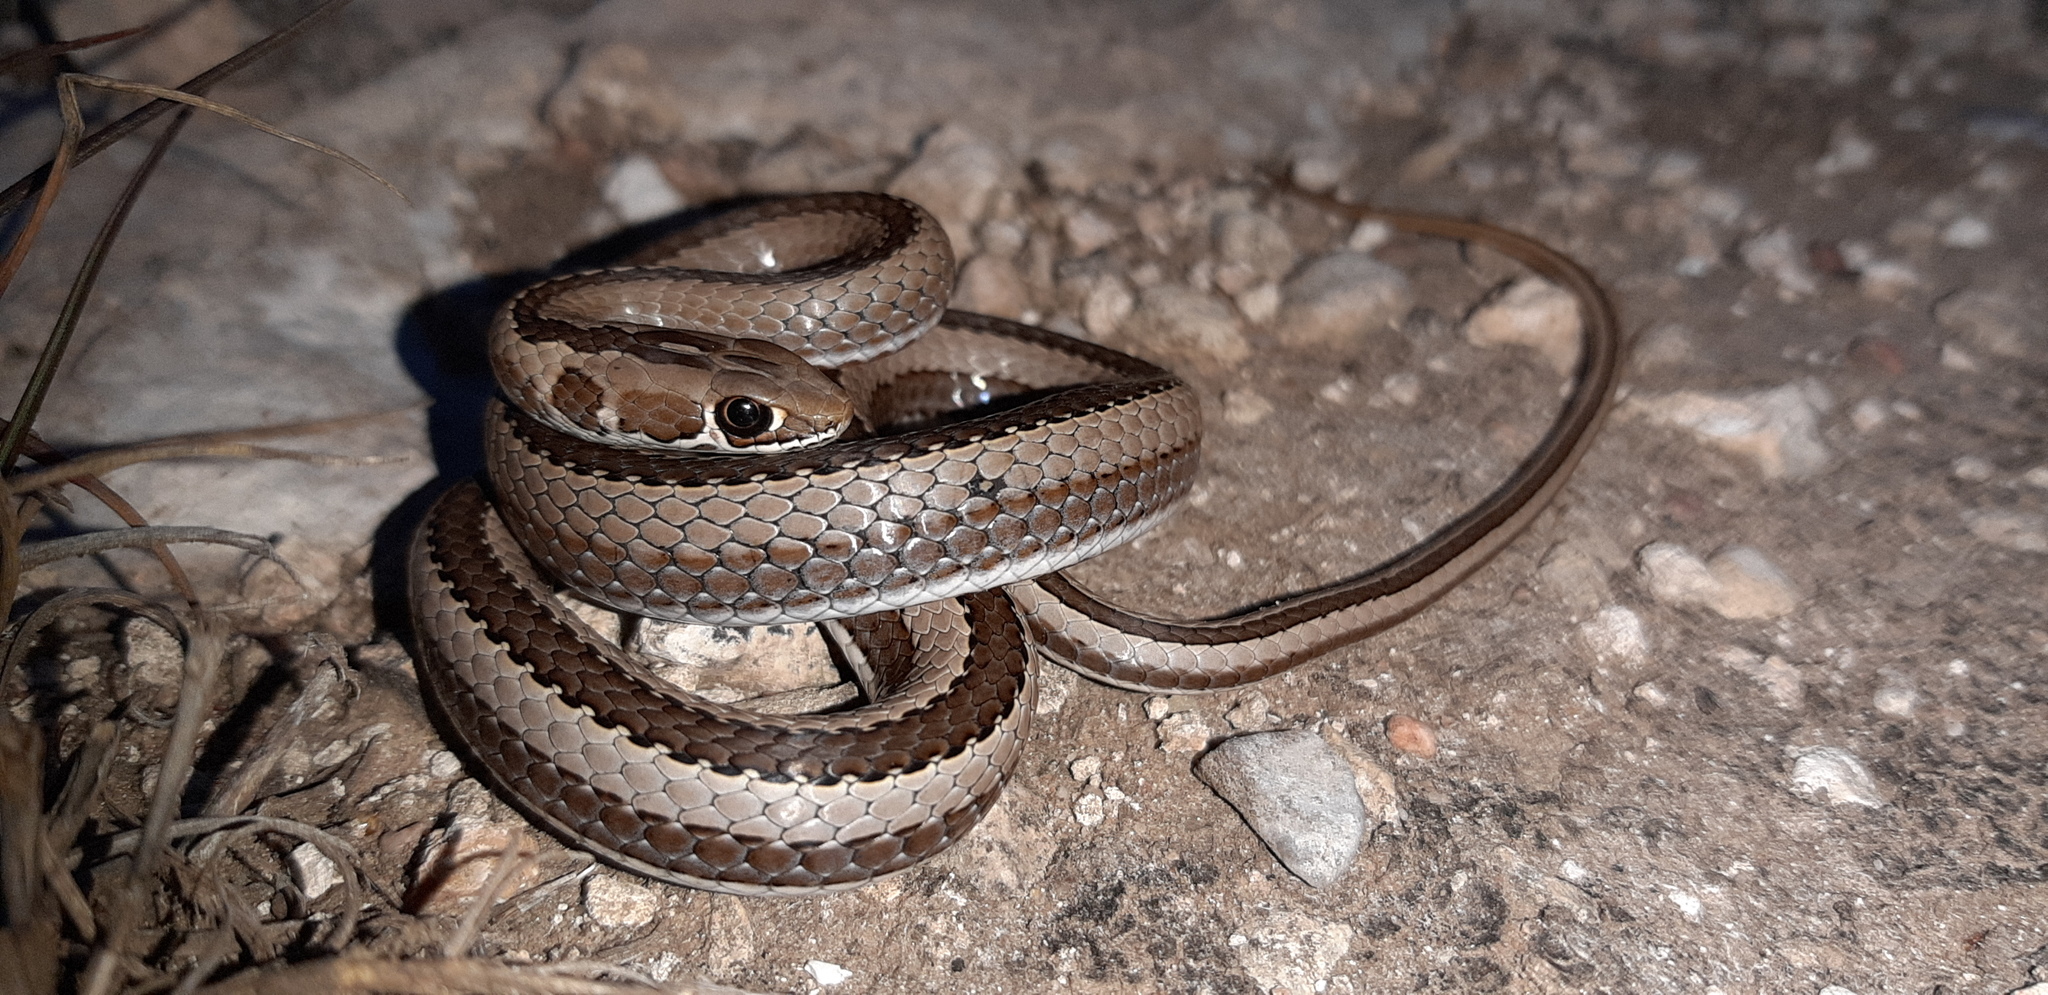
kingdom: Animalia
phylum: Chordata
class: Squamata
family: Psammophiidae
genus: Psammophis
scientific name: Psammophis crucifer
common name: Cross-marked grass snake
